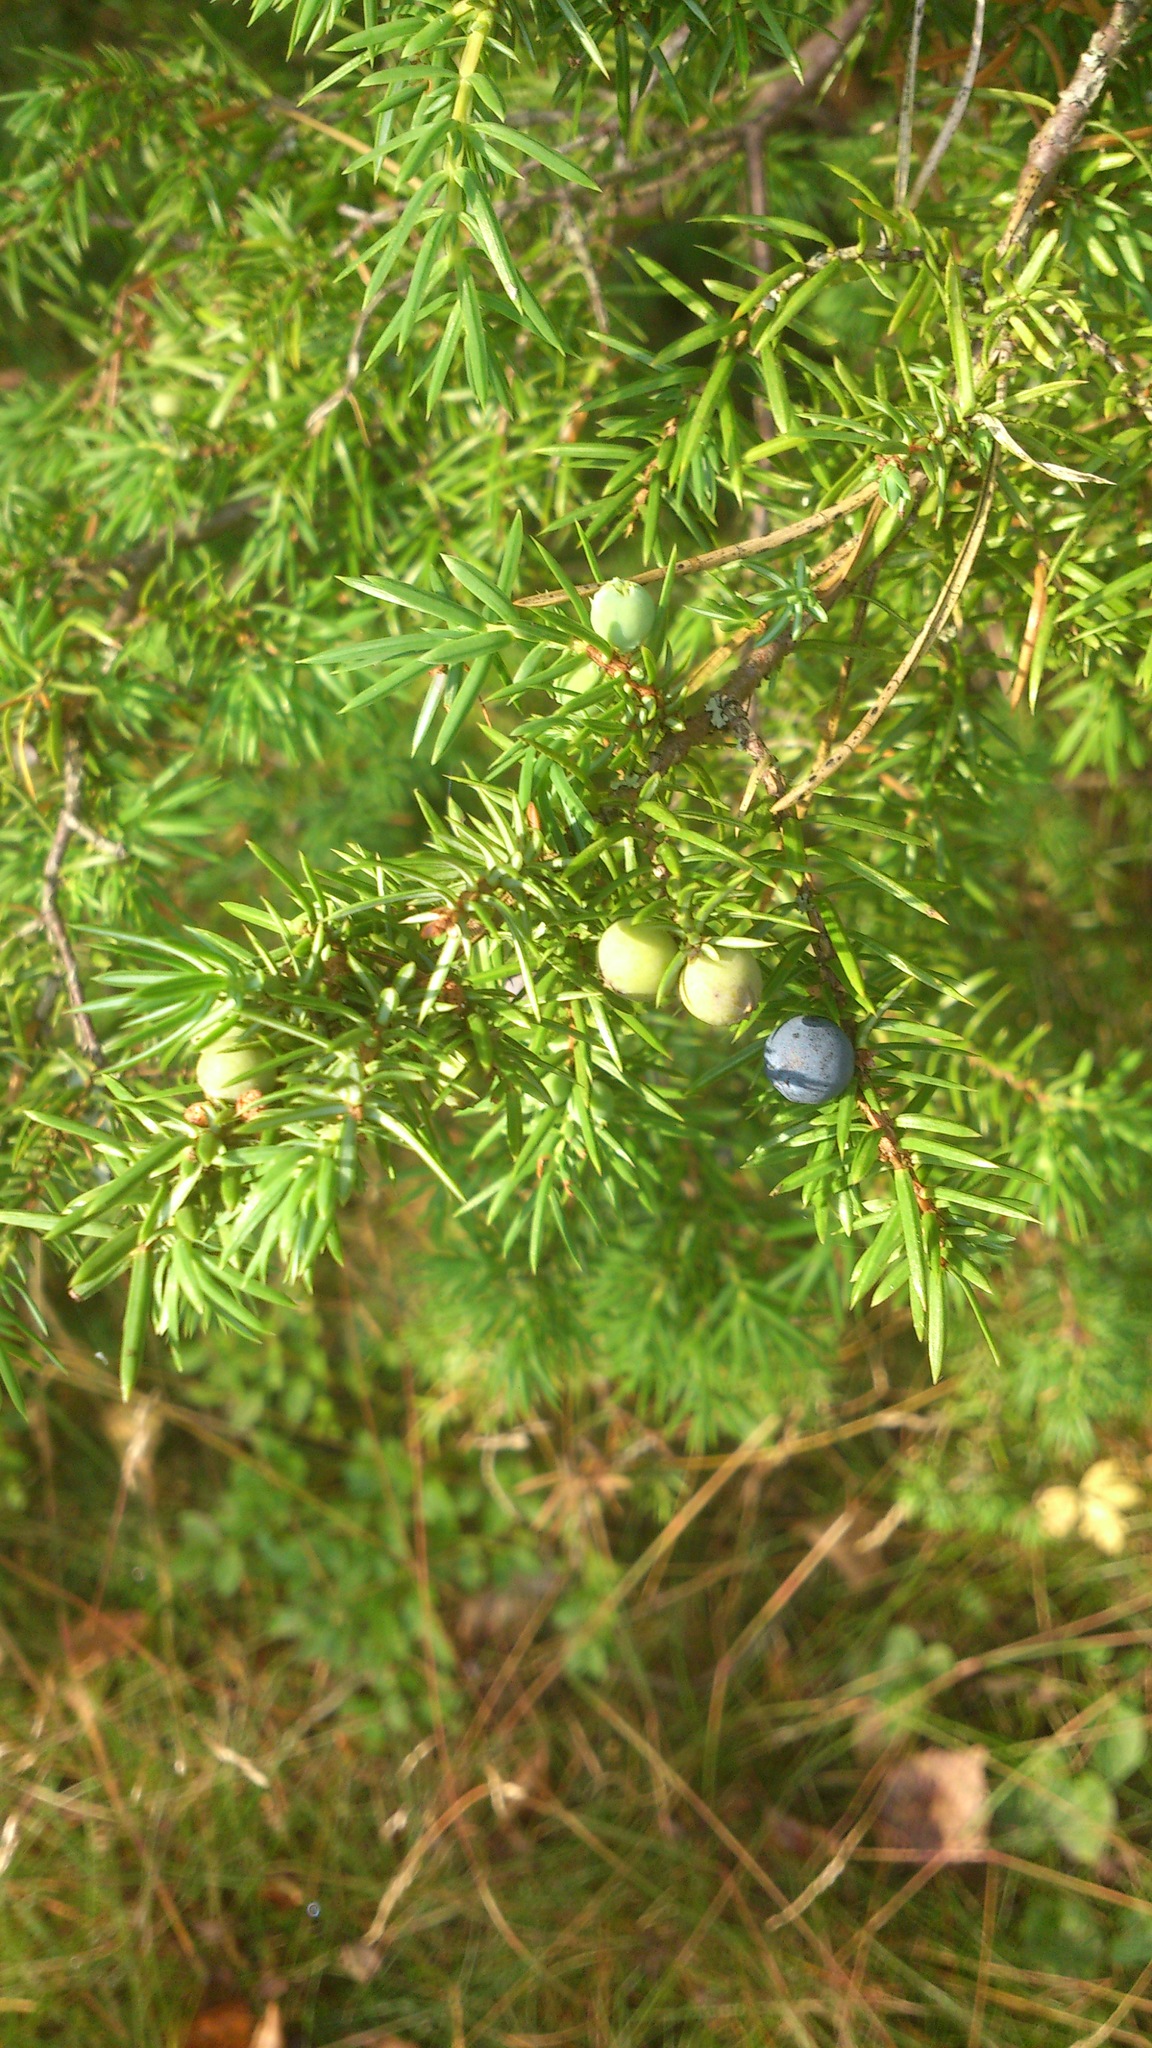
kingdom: Plantae
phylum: Tracheophyta
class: Pinopsida
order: Pinales
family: Cupressaceae
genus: Juniperus
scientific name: Juniperus communis
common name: Common juniper
